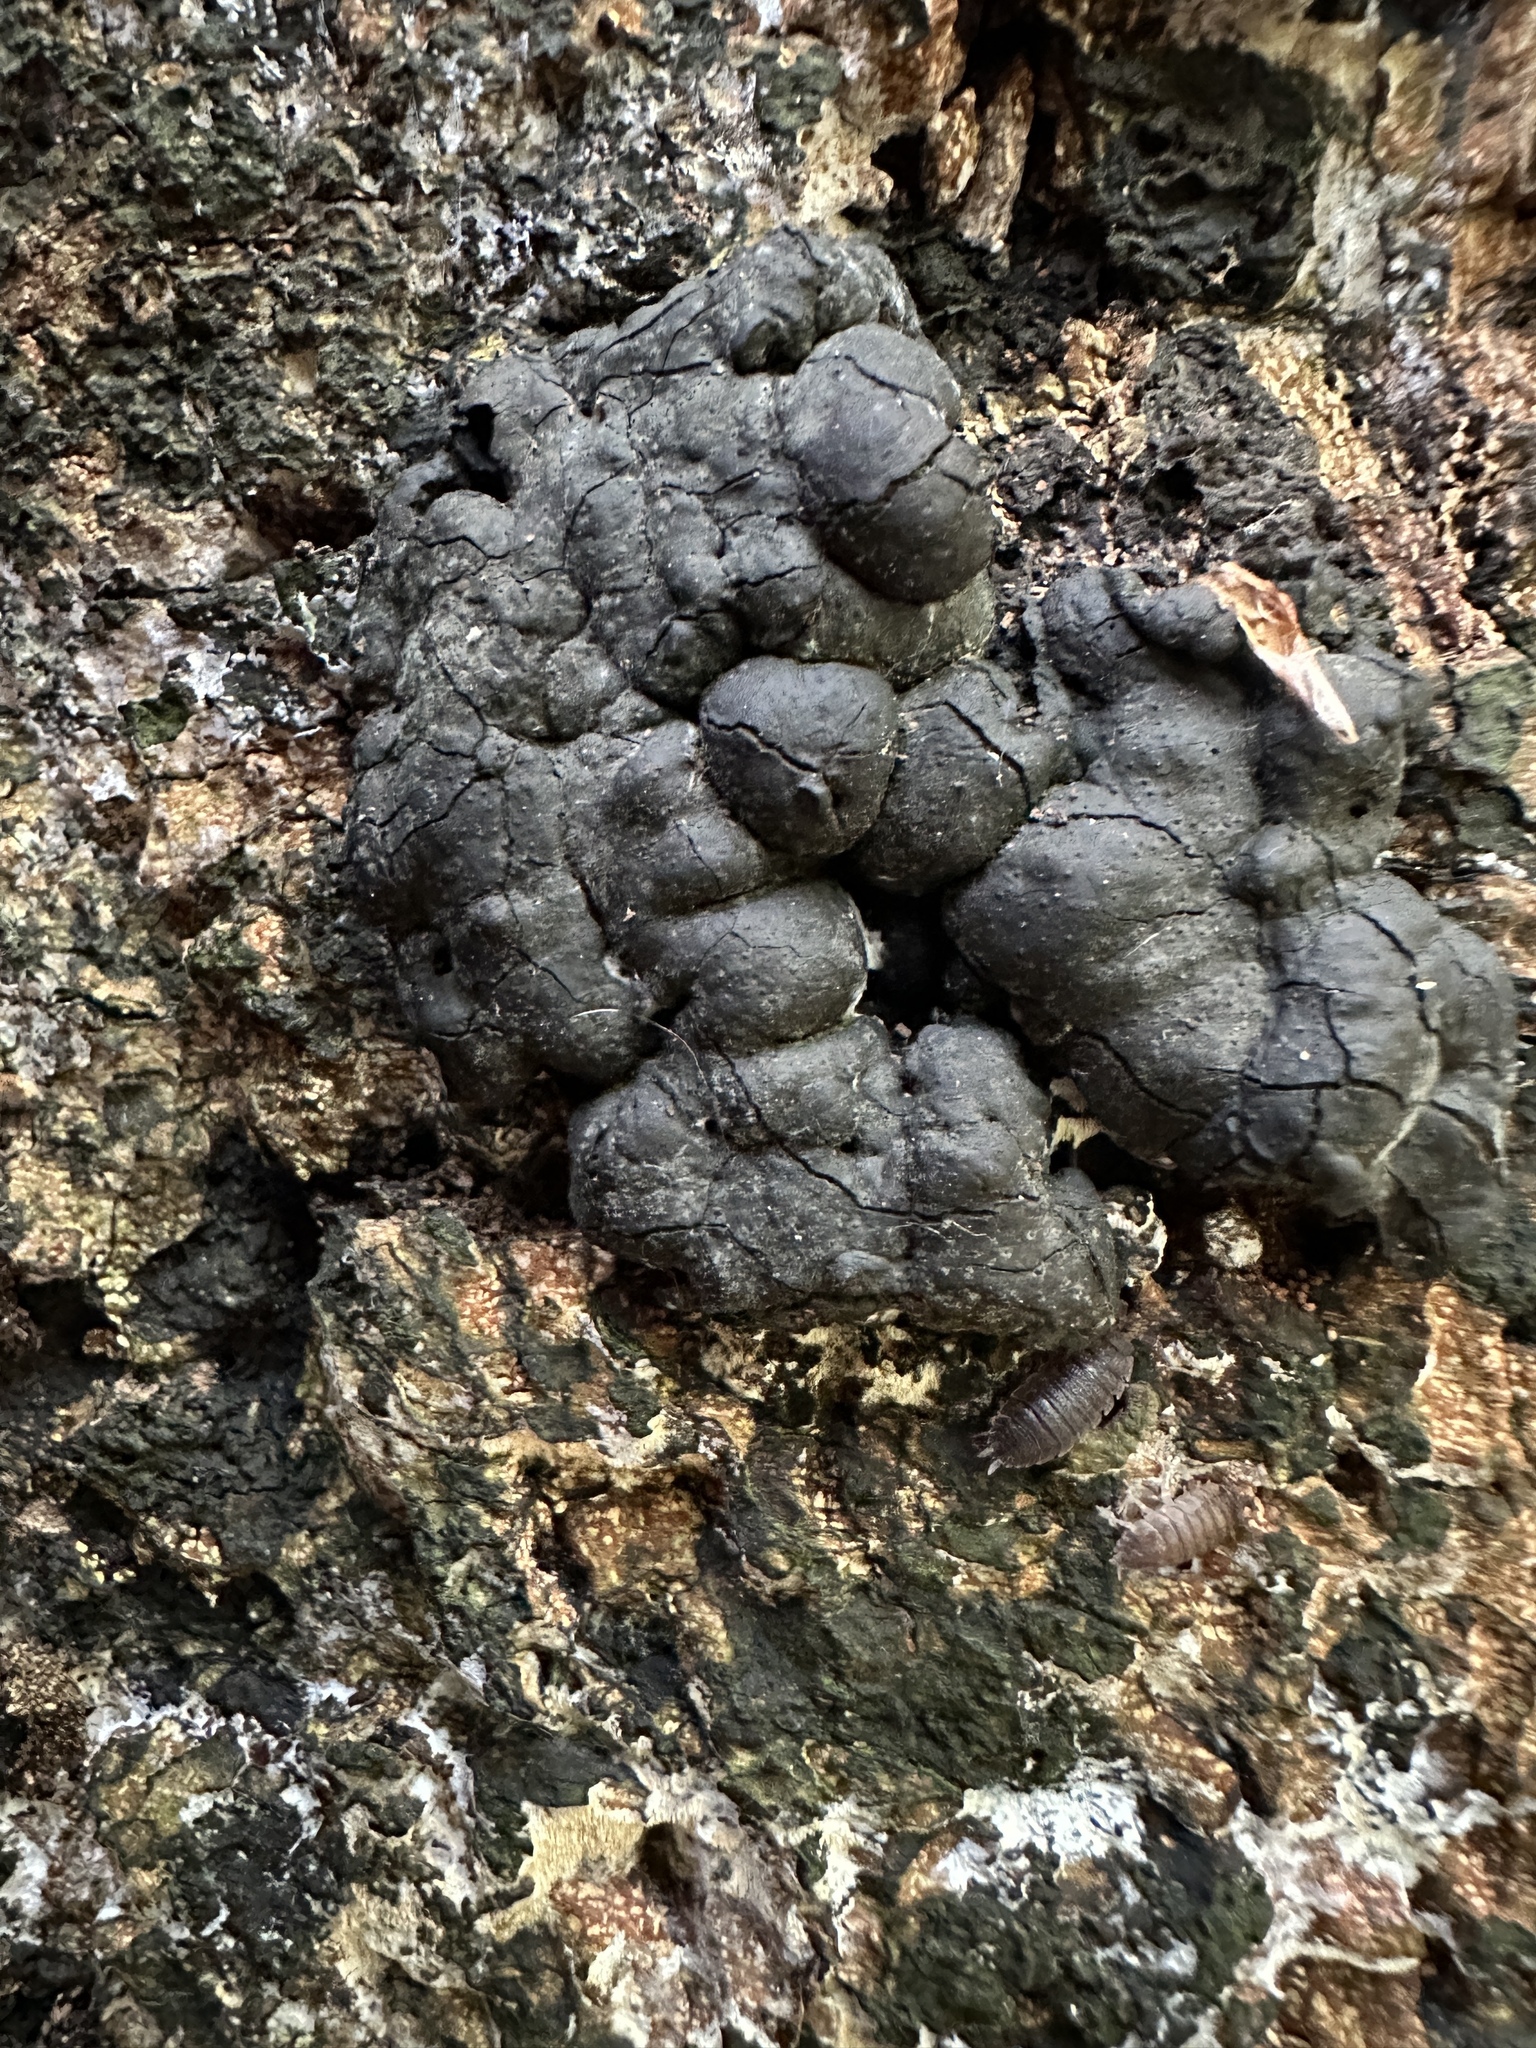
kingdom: Fungi
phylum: Ascomycota
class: Sordariomycetes
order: Xylariales
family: Xylariaceae
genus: Kretzschmaria
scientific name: Kretzschmaria deusta
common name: Brittle cinder
